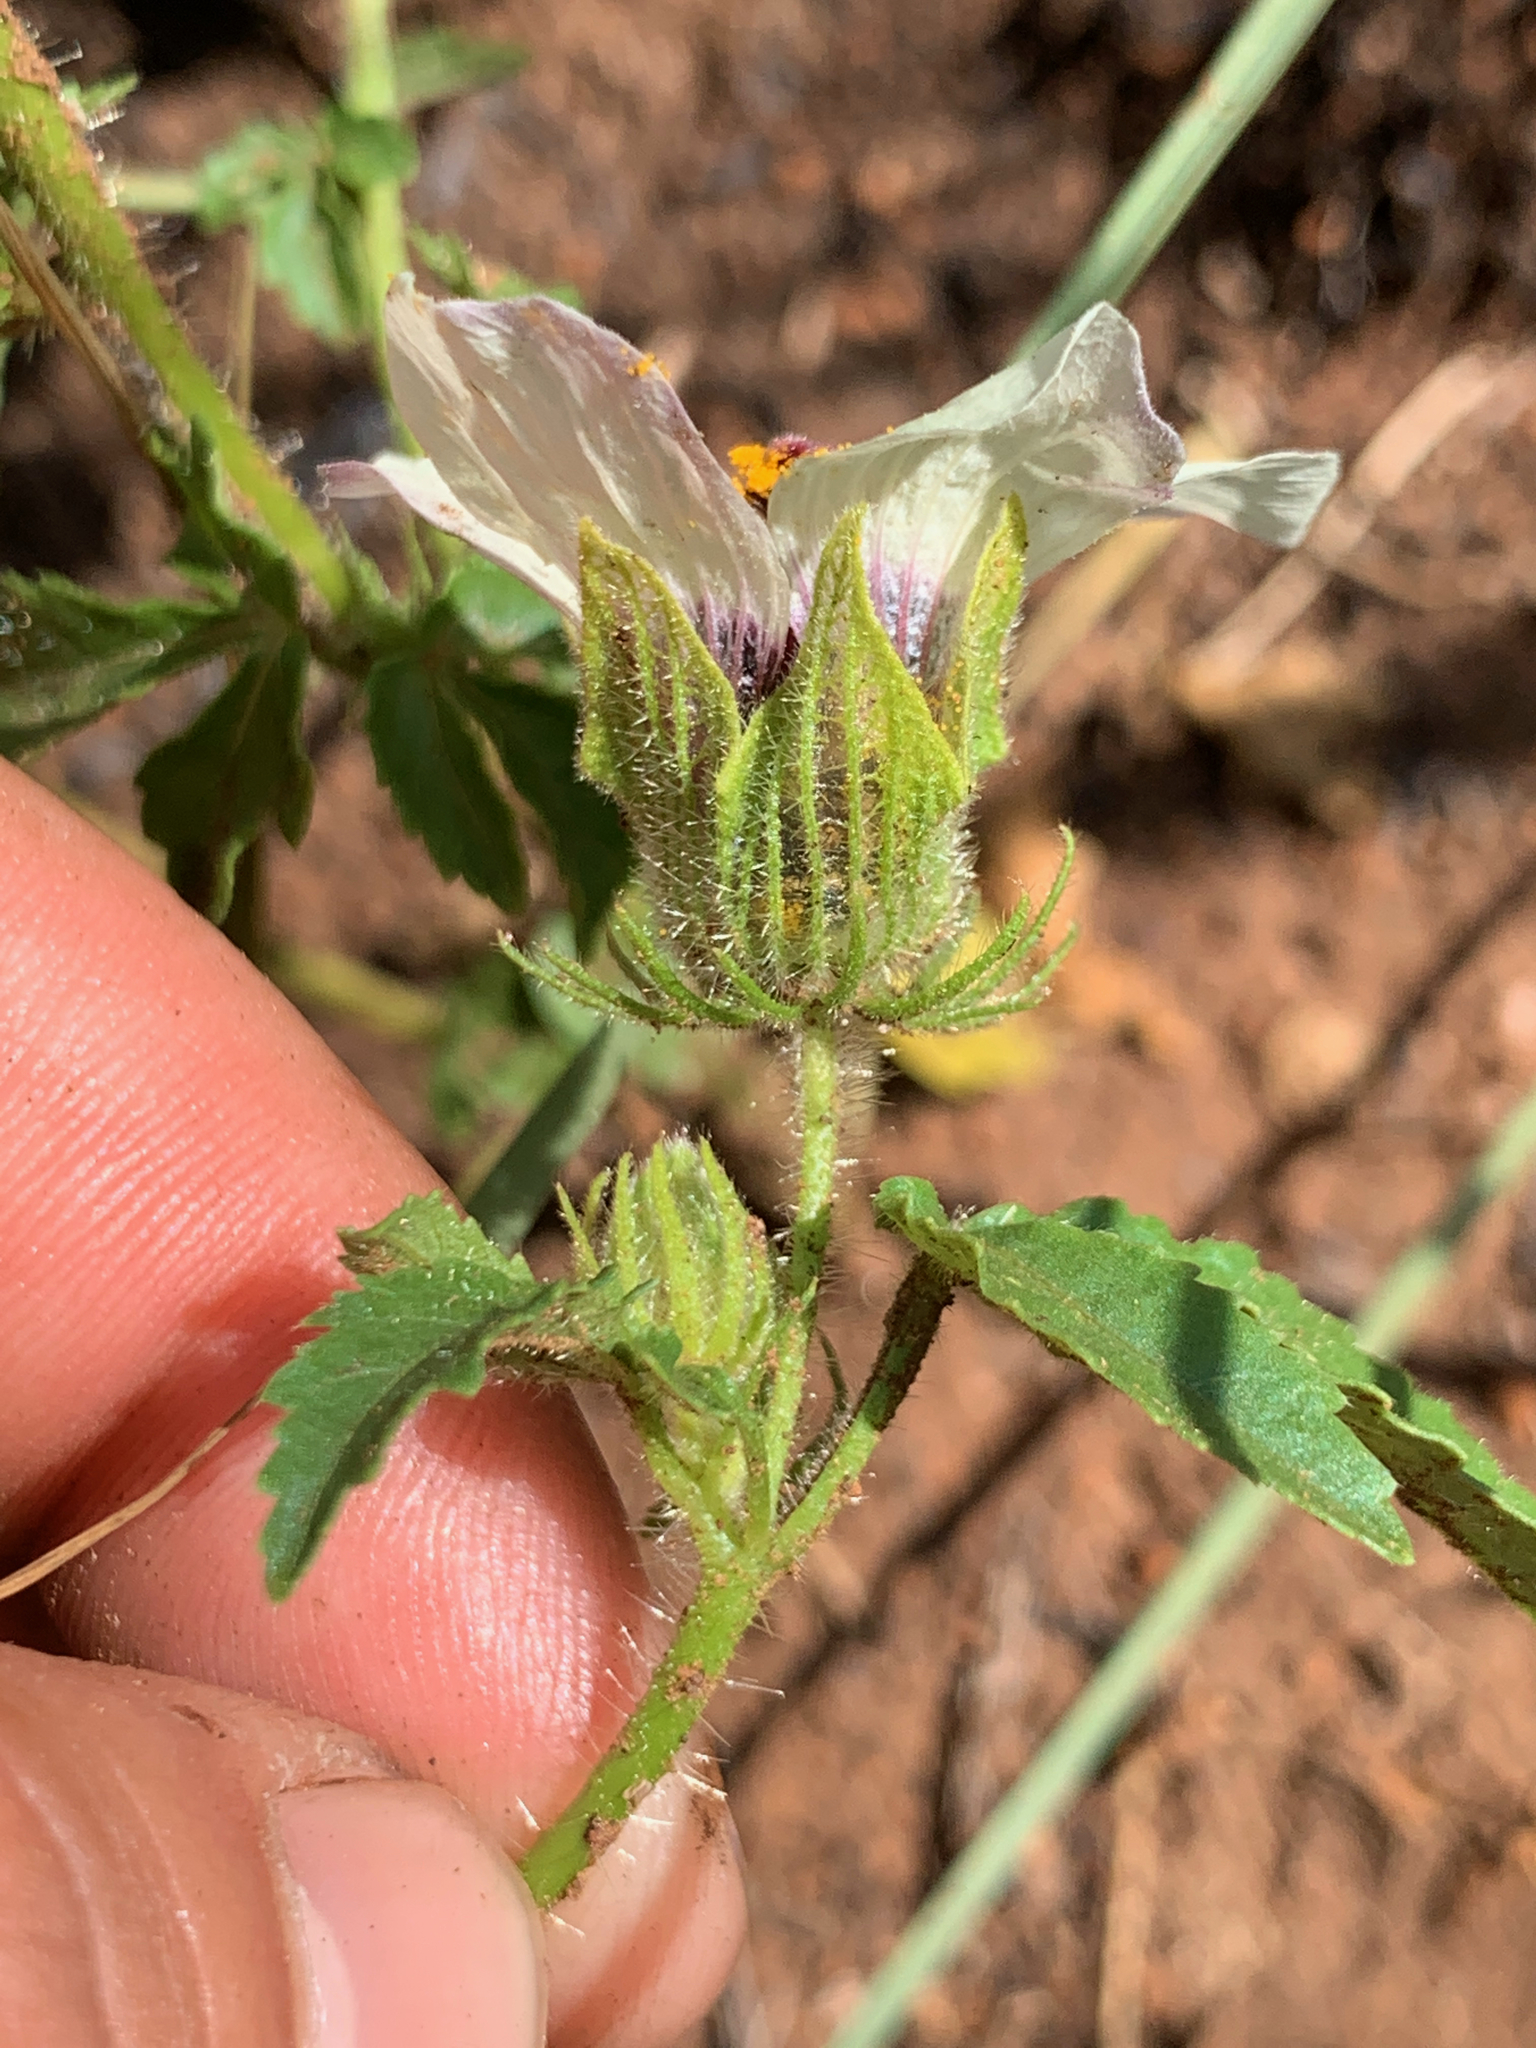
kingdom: Plantae
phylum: Tracheophyta
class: Magnoliopsida
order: Malvales
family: Malvaceae
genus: Hibiscus
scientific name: Hibiscus trionum
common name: Bladder ketmia
